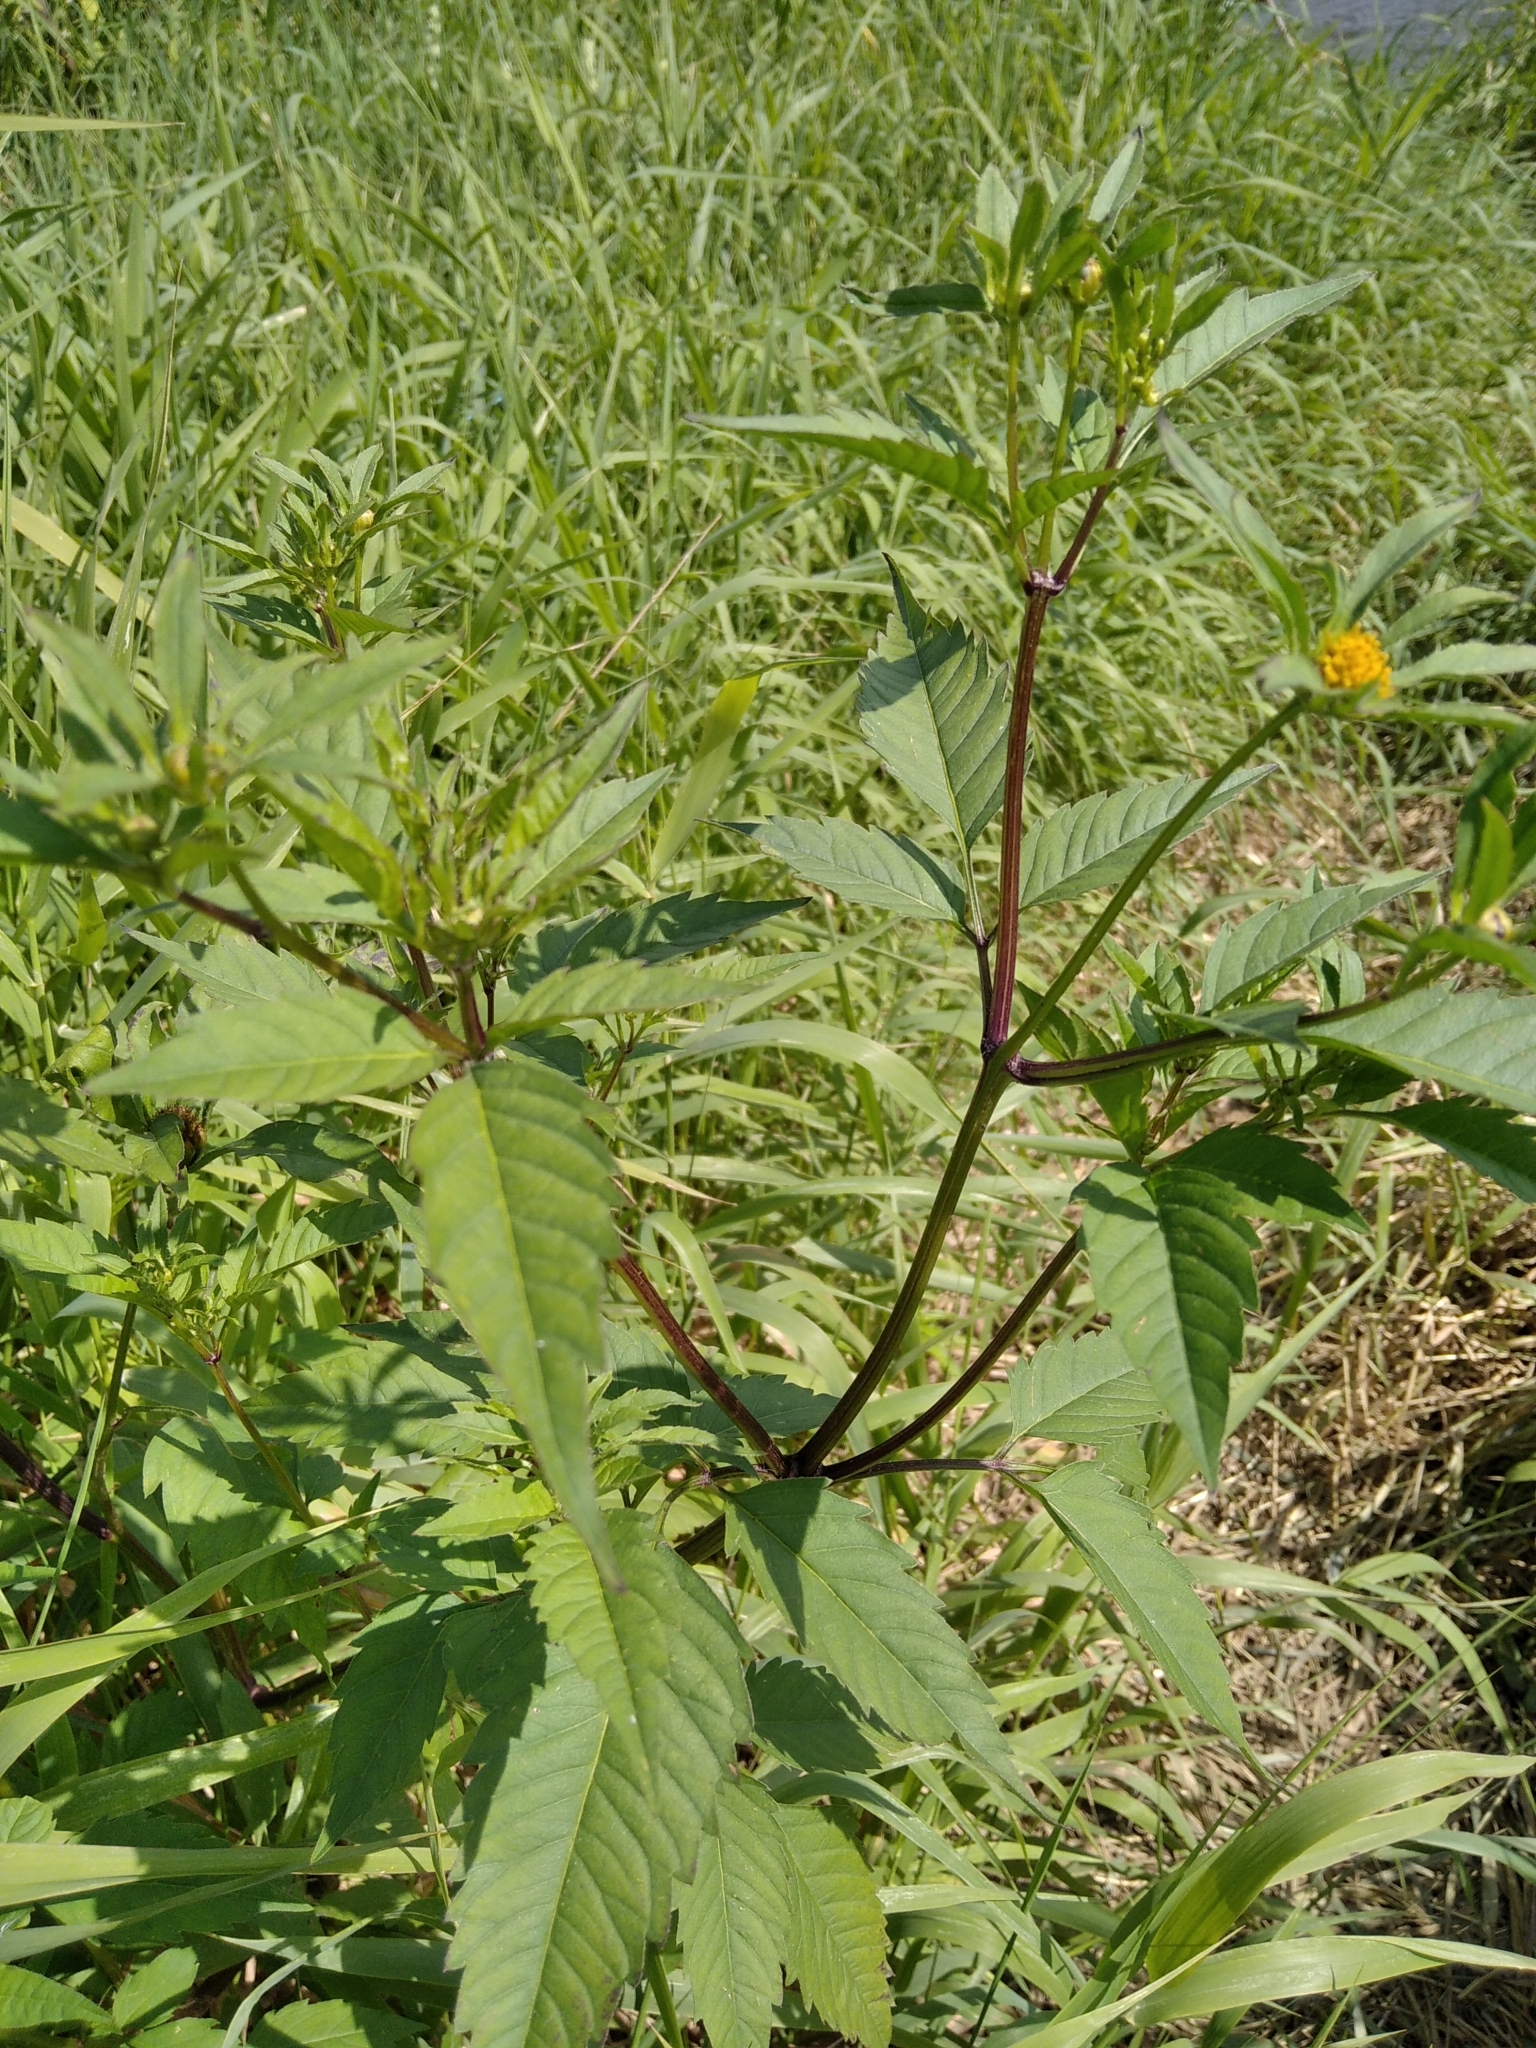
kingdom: Plantae
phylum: Tracheophyta
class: Magnoliopsida
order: Asterales
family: Asteraceae
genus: Bidens
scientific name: Bidens frondosa
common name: Beggarticks
